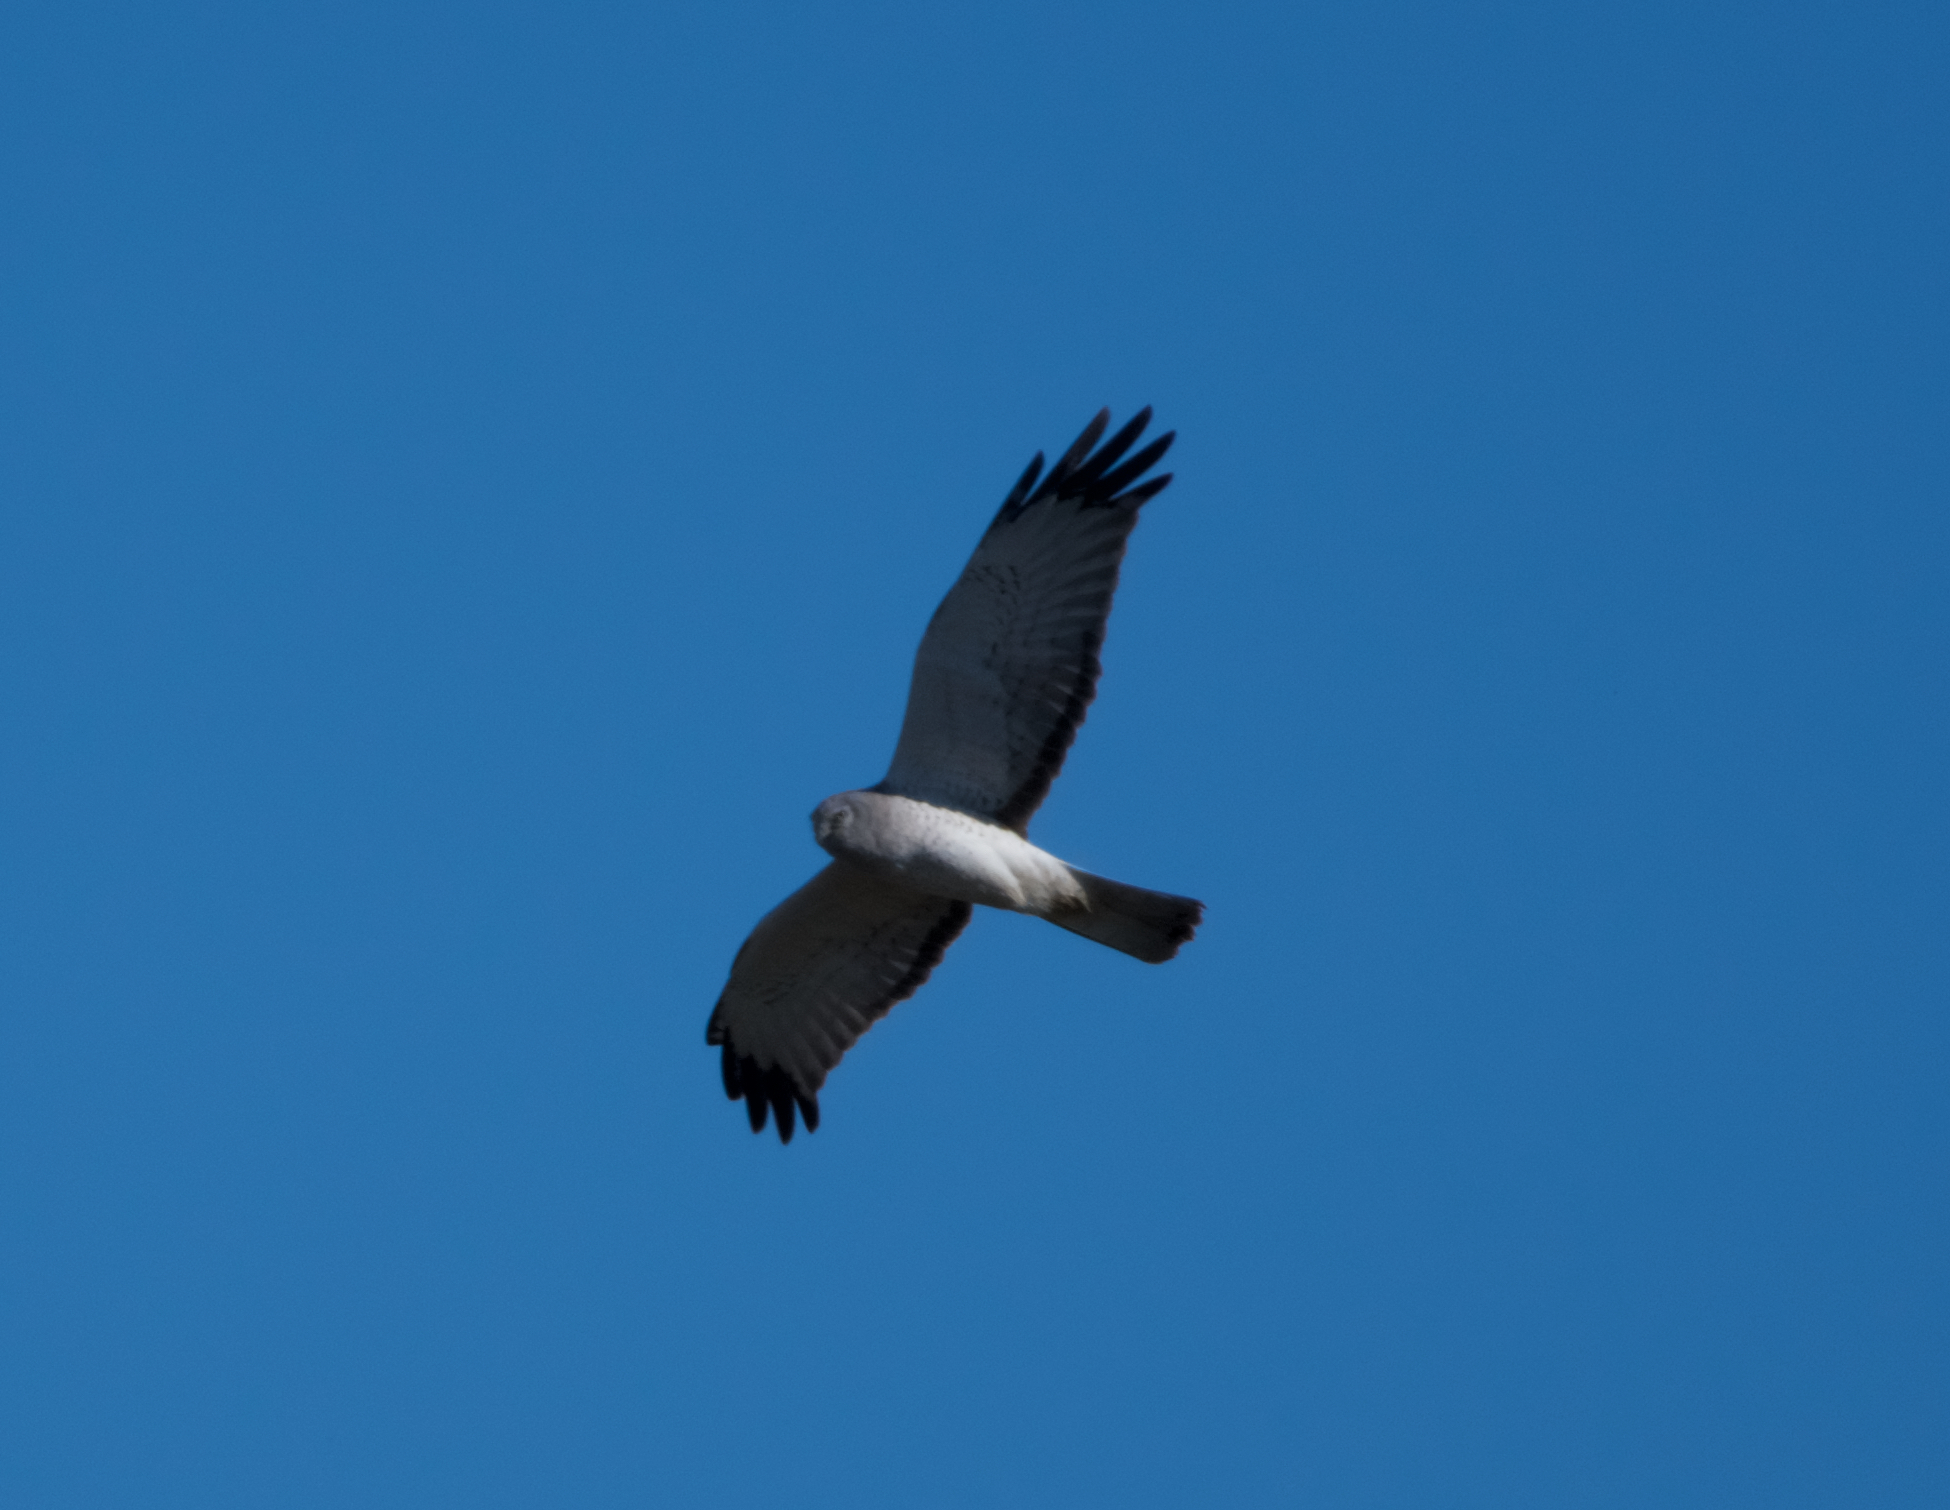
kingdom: Animalia
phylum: Chordata
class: Aves
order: Accipitriformes
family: Accipitridae
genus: Circus
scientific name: Circus cyaneus
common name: Hen harrier
